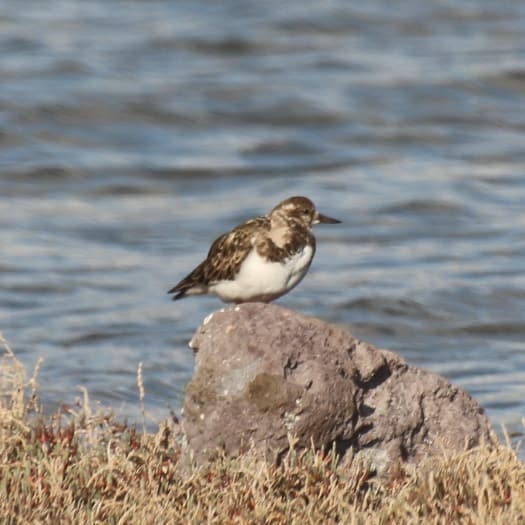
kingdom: Animalia
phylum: Chordata
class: Aves
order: Charadriiformes
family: Scolopacidae
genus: Arenaria
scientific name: Arenaria interpres
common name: Ruddy turnstone
